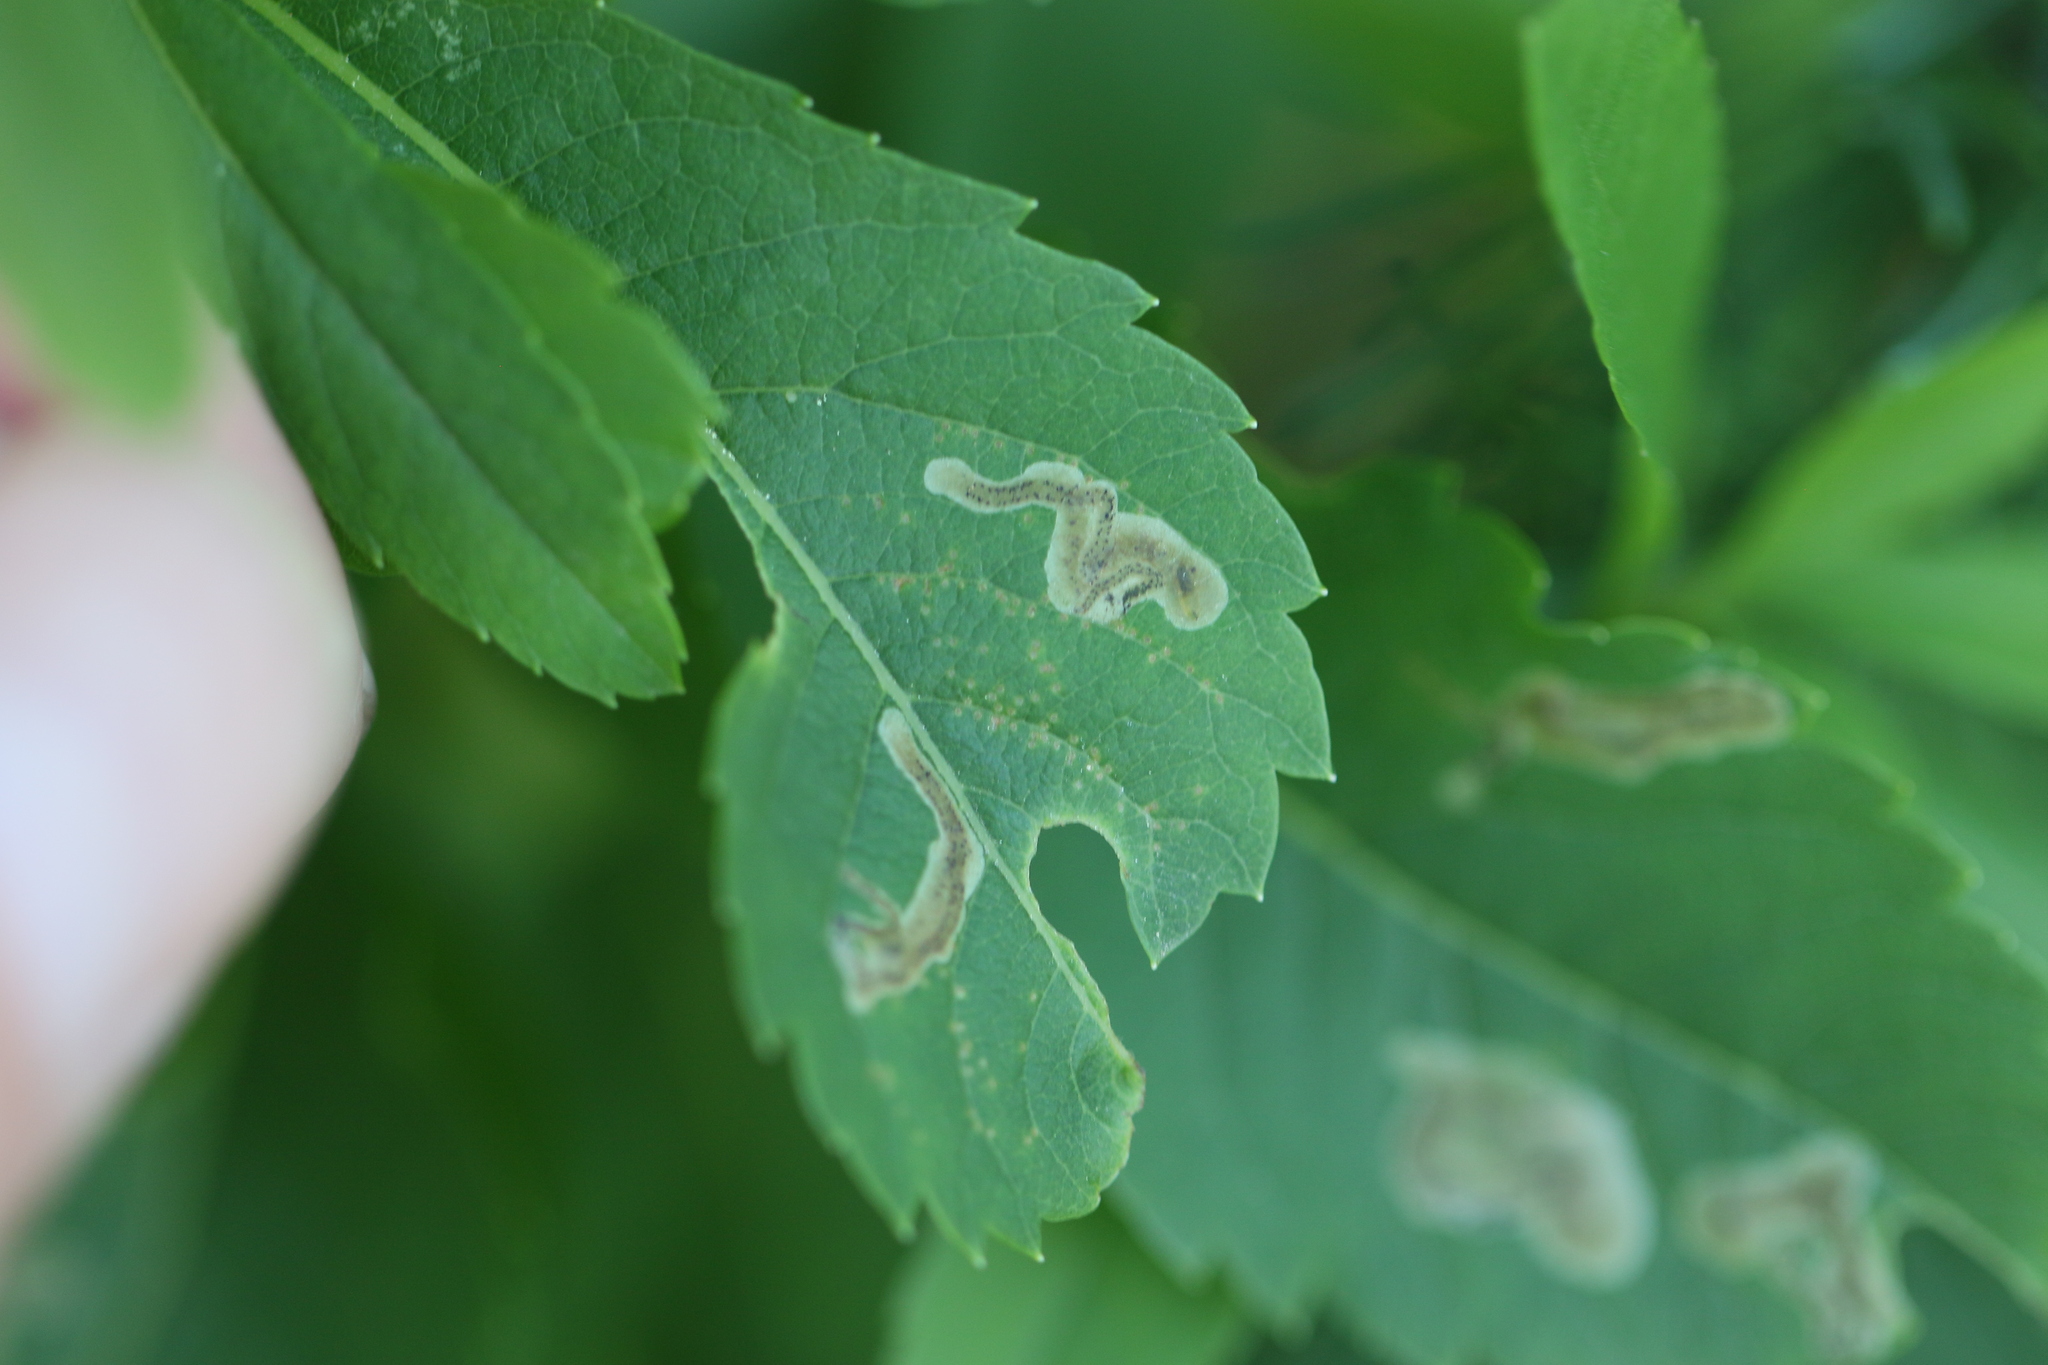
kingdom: Animalia
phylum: Arthropoda
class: Insecta
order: Diptera
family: Agromyzidae
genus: Agromyza
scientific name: Agromyza valdorensis
